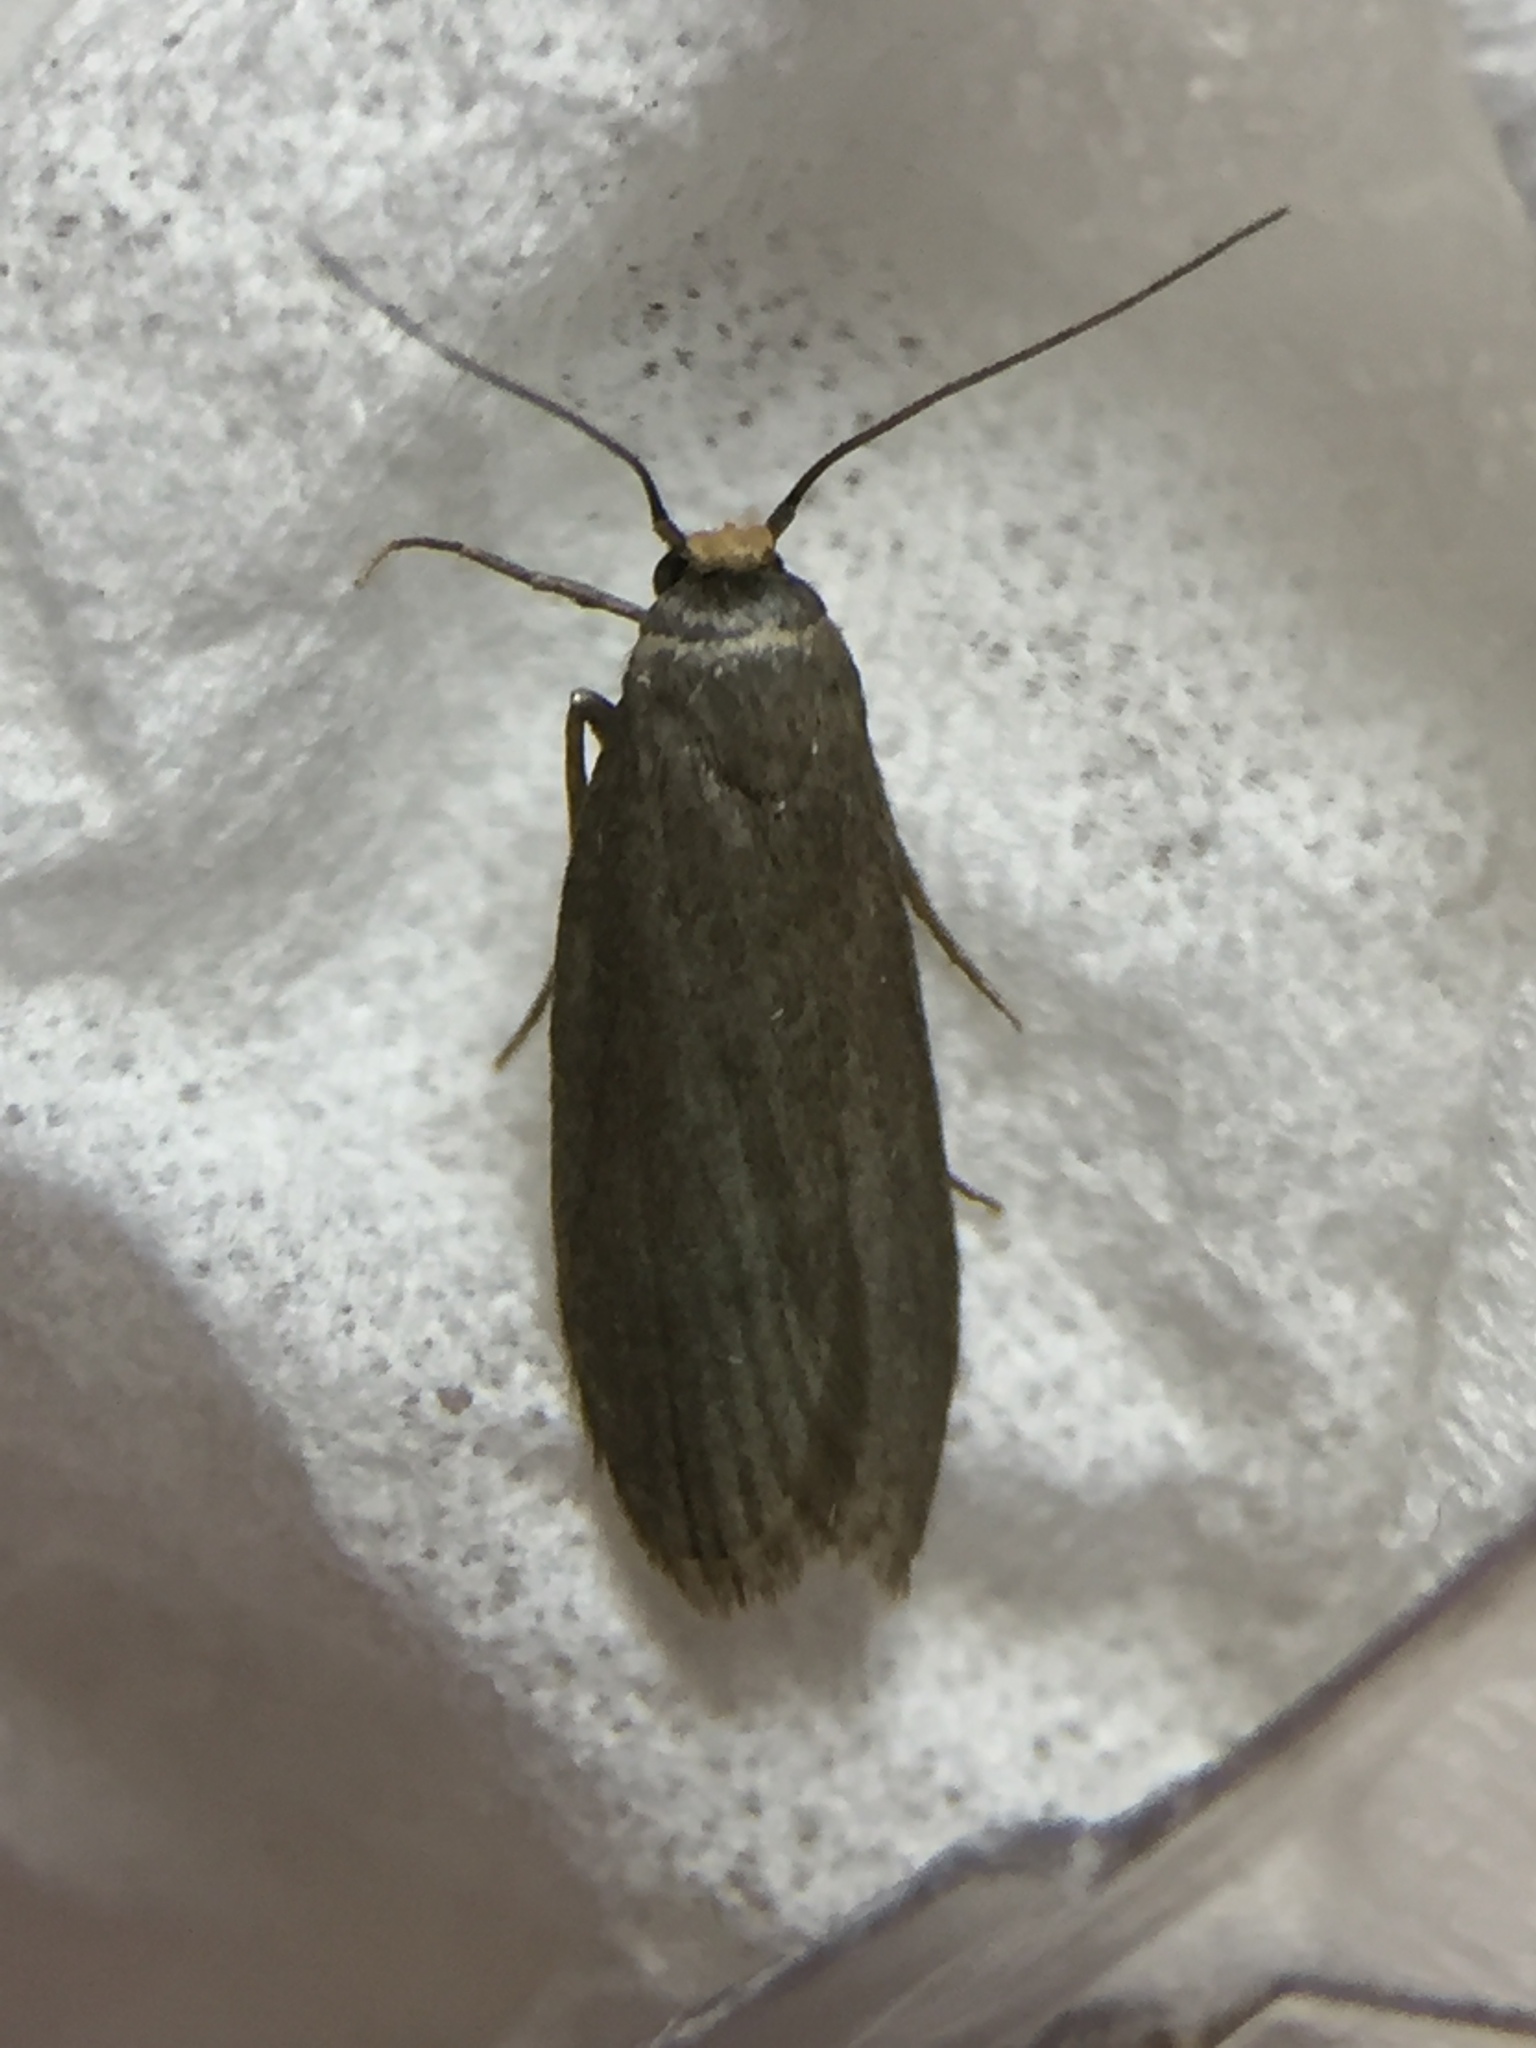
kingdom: Animalia
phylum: Arthropoda
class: Insecta
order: Lepidoptera
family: Pyralidae
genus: Achroia
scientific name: Achroia grisella
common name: Lesser wax moth
